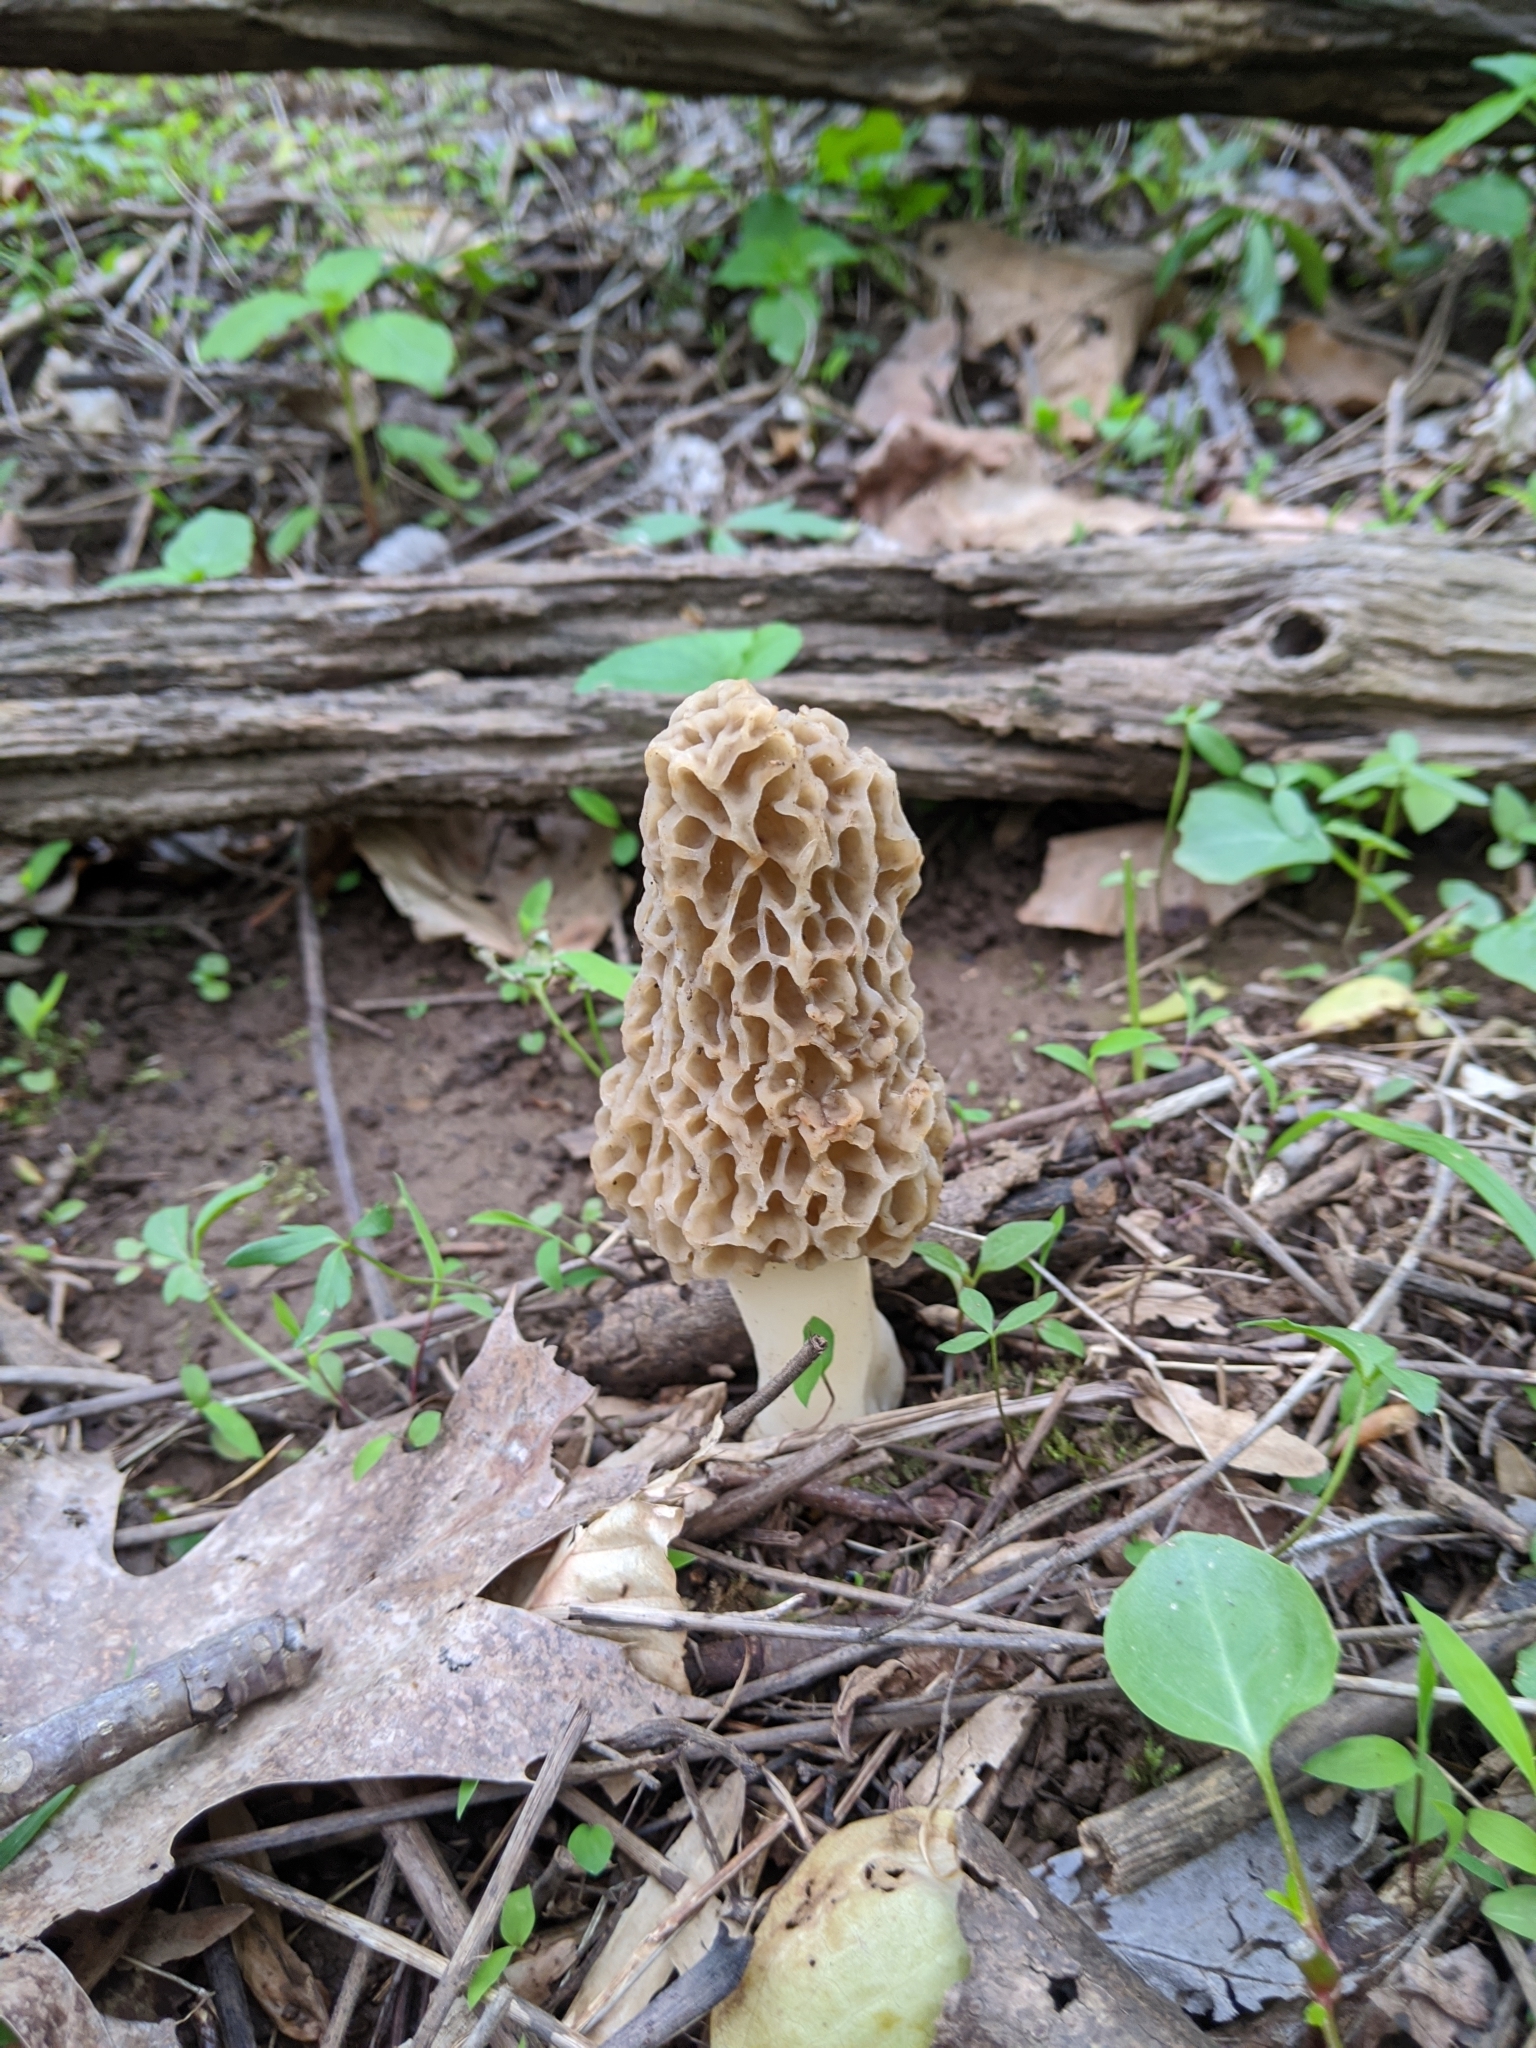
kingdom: Fungi
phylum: Ascomycota
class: Pezizomycetes
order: Pezizales
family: Morchellaceae
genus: Morchella
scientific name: Morchella americana
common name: White morel
